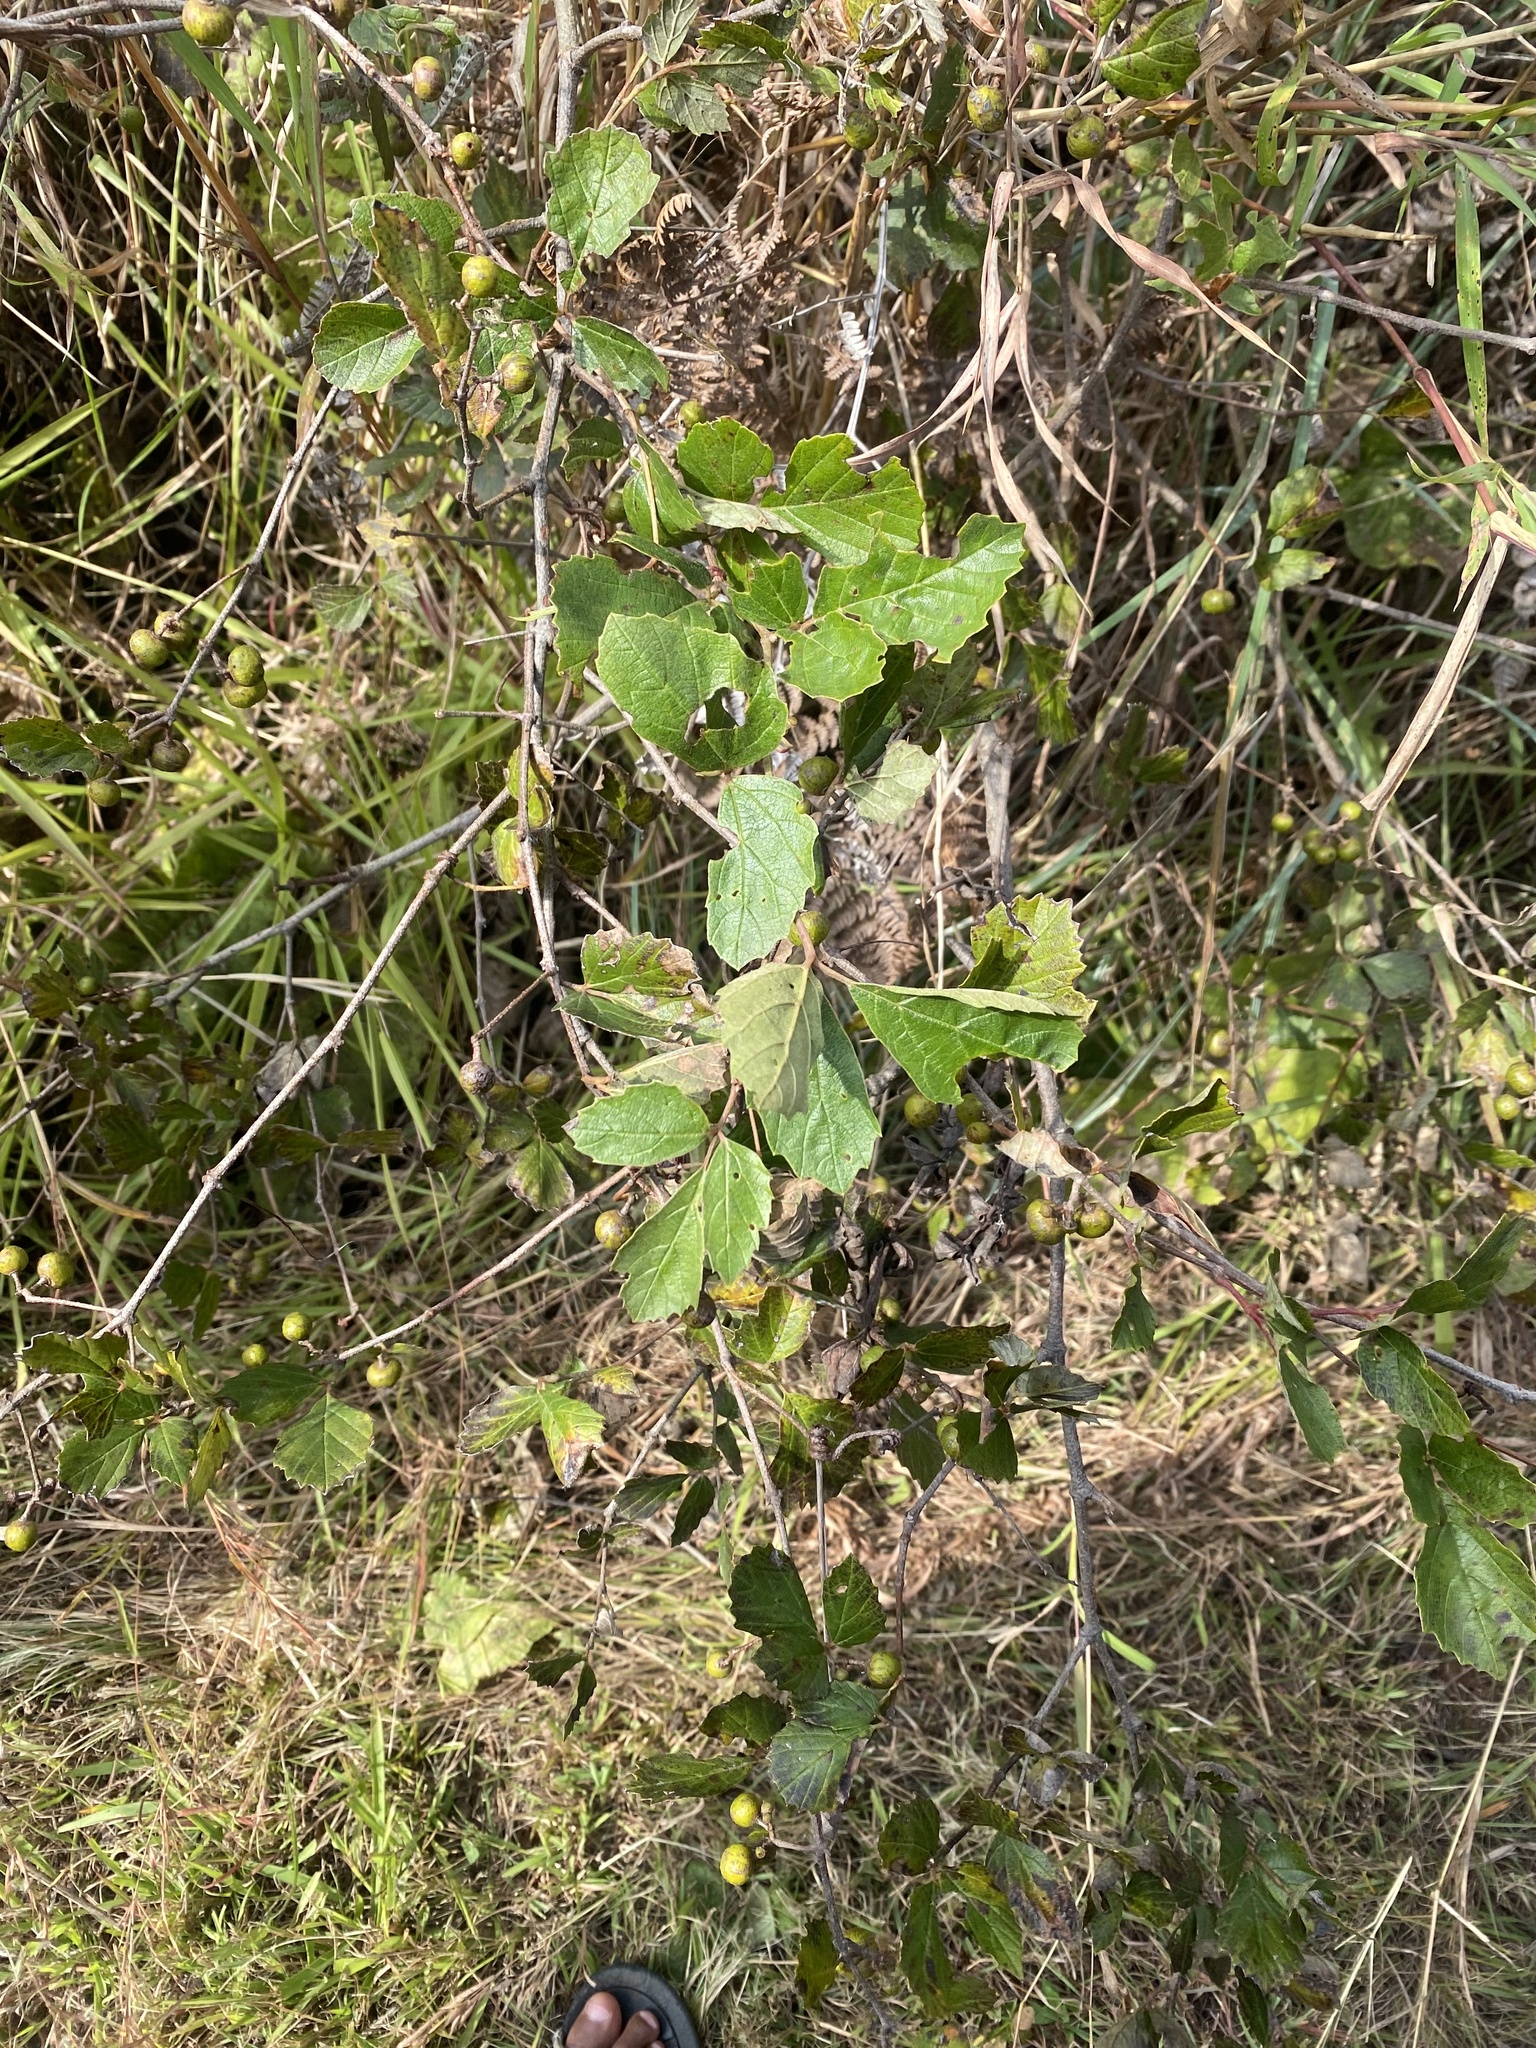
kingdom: Plantae
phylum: Tracheophyta
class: Magnoliopsida
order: Vitales
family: Vitaceae
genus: Rhoicissus
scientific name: Rhoicissus tridentata
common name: Common forest grape
